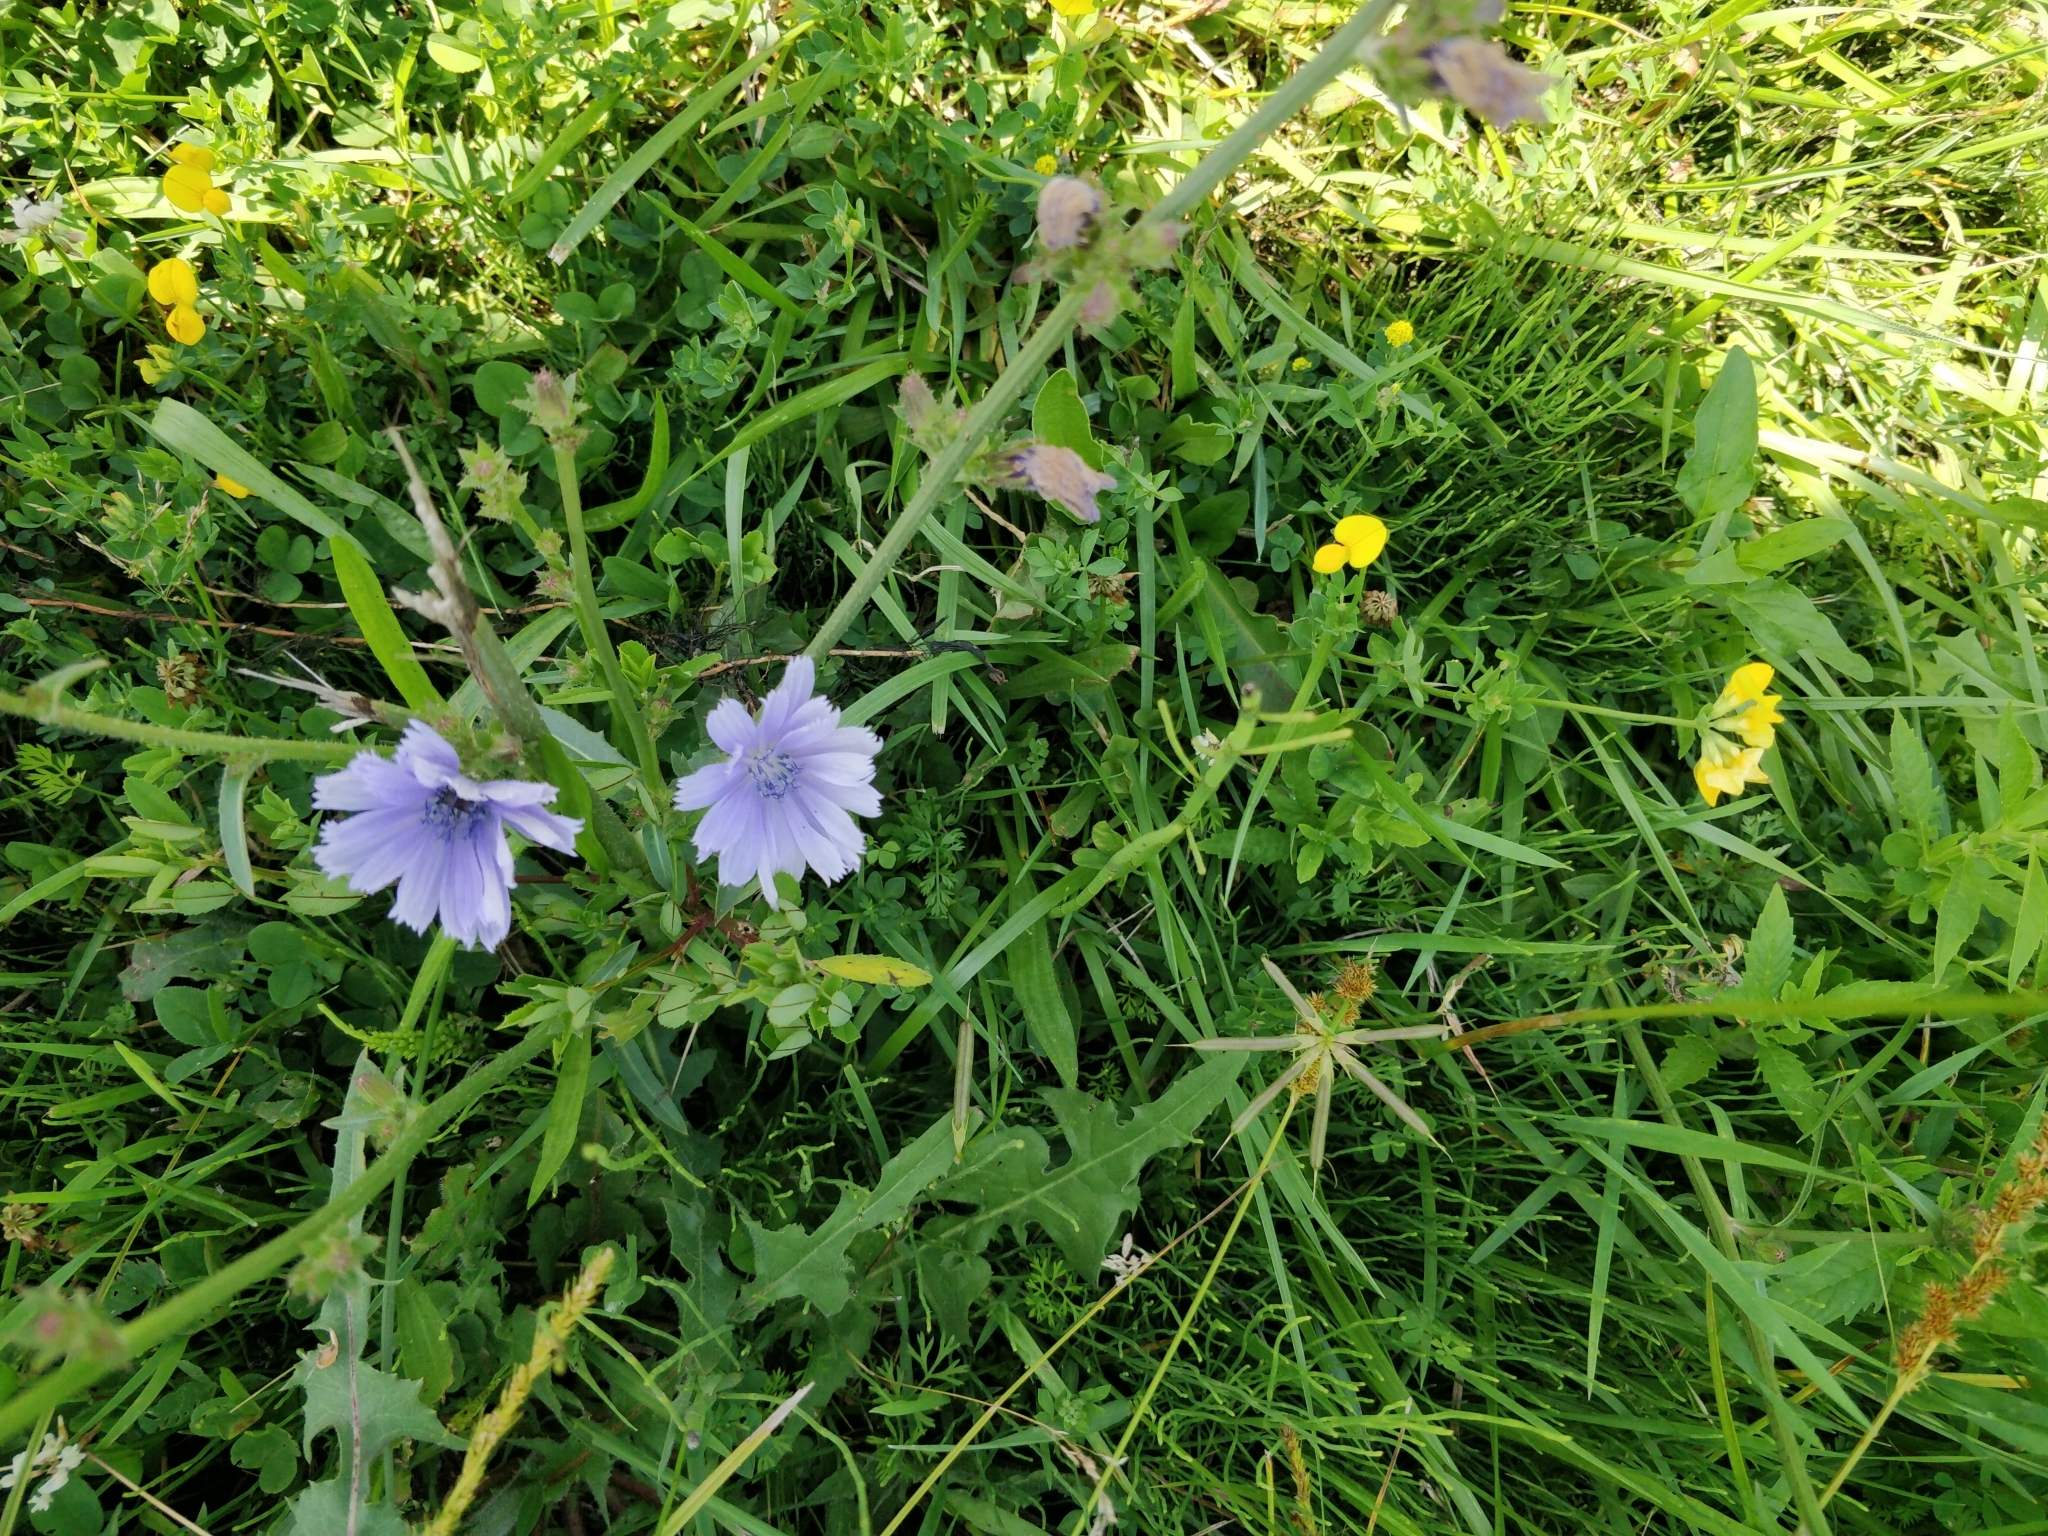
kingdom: Plantae
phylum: Tracheophyta
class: Magnoliopsida
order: Asterales
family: Asteraceae
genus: Cichorium
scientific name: Cichorium intybus
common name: Chicory
